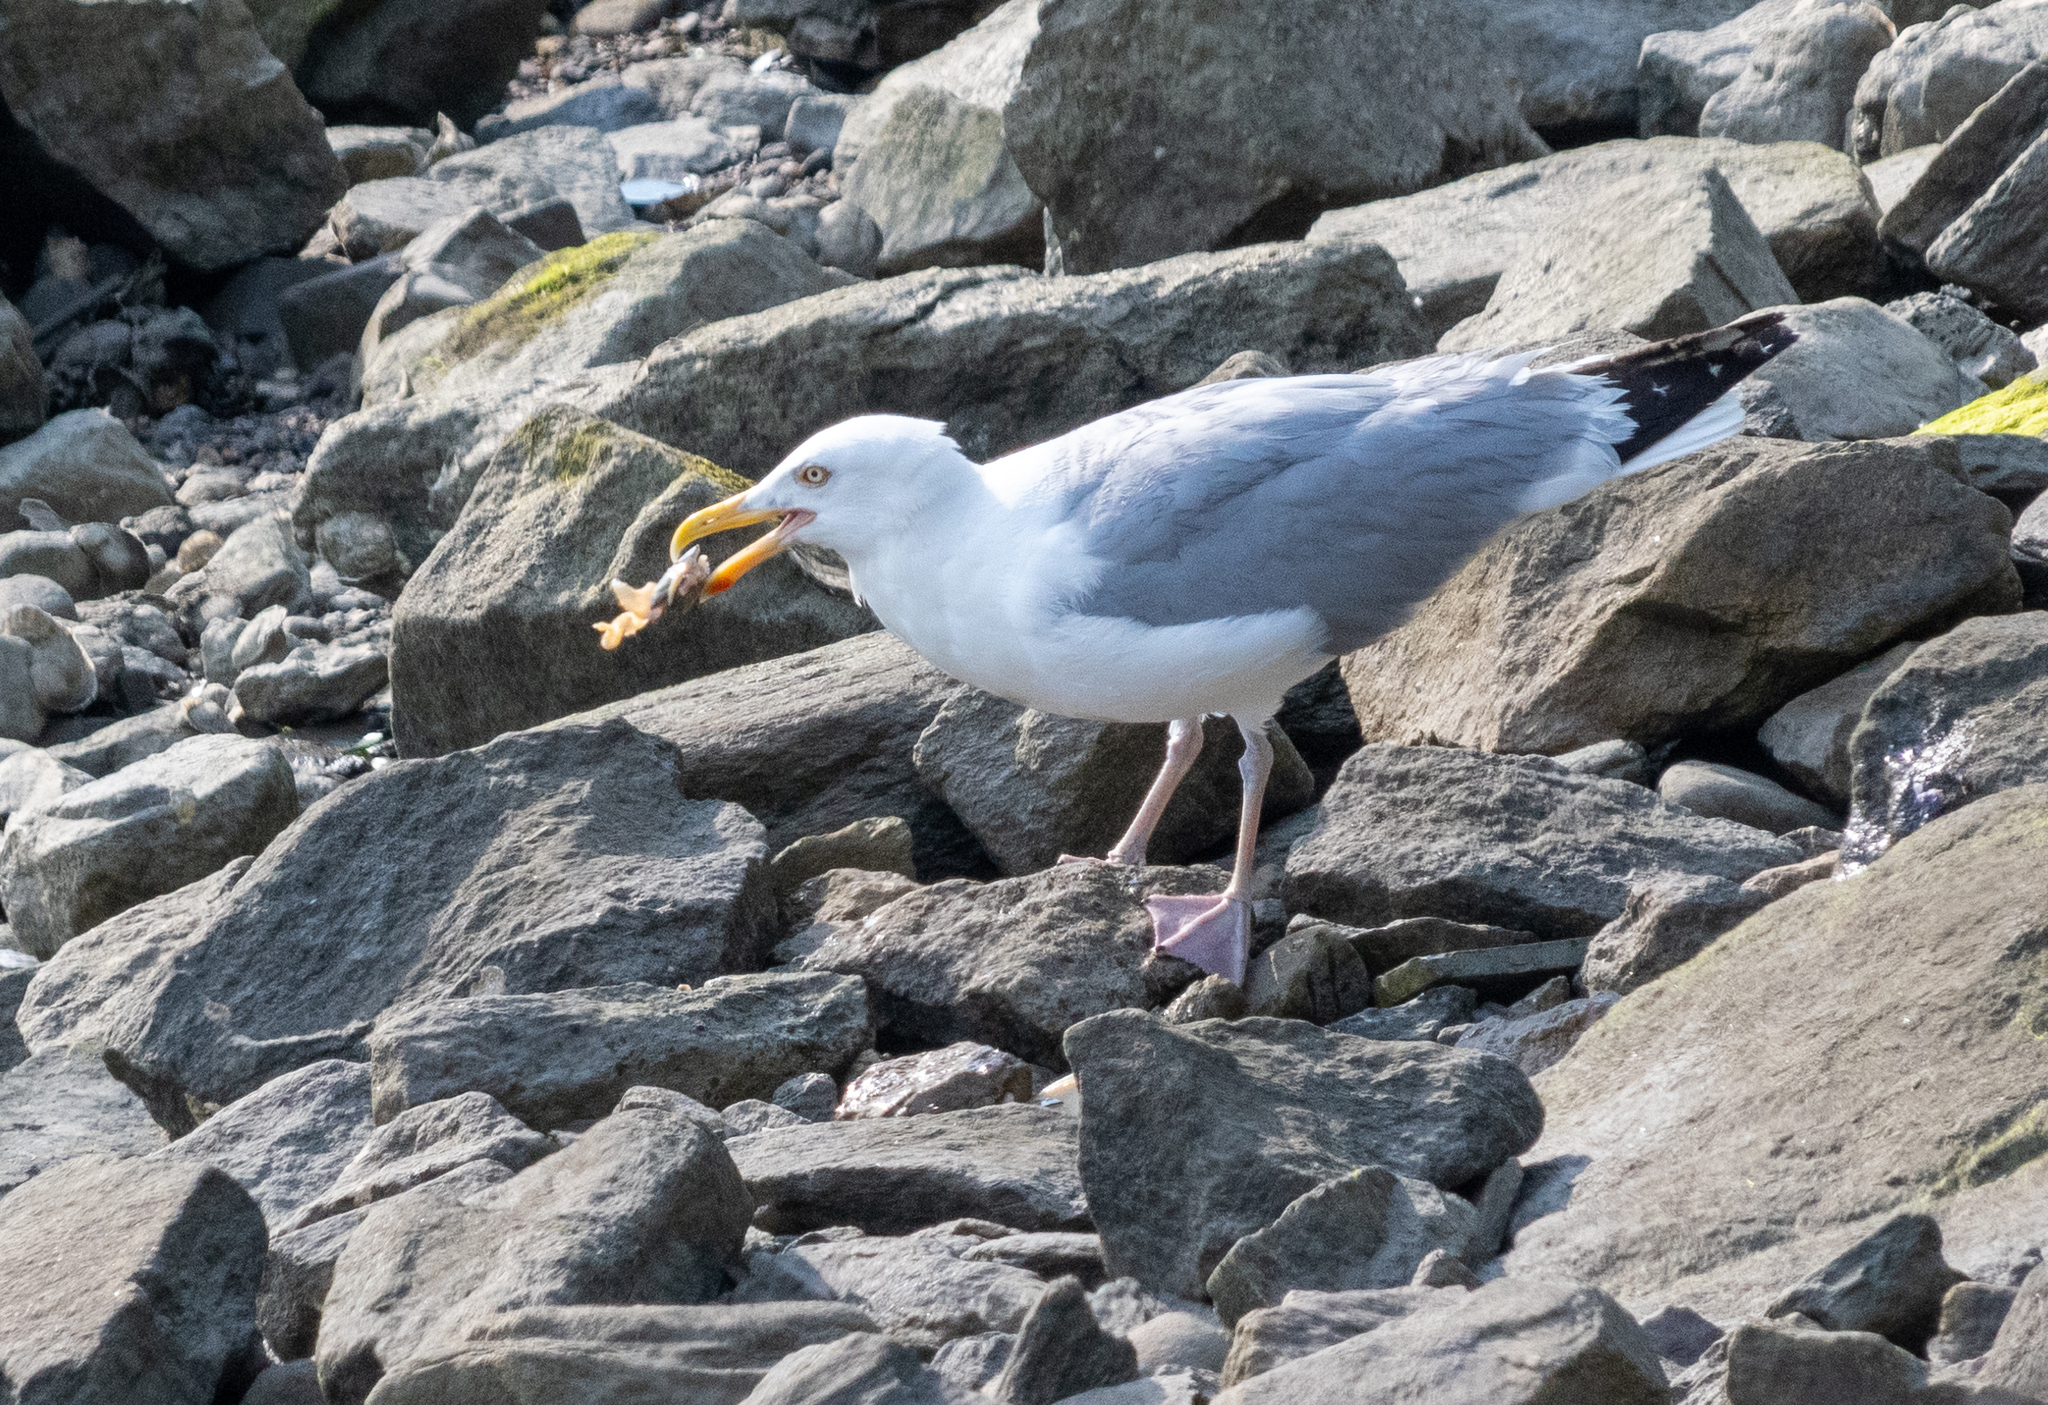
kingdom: Animalia
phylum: Chordata
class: Aves
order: Charadriiformes
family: Laridae
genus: Larus
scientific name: Larus argentatus
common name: Herring gull
